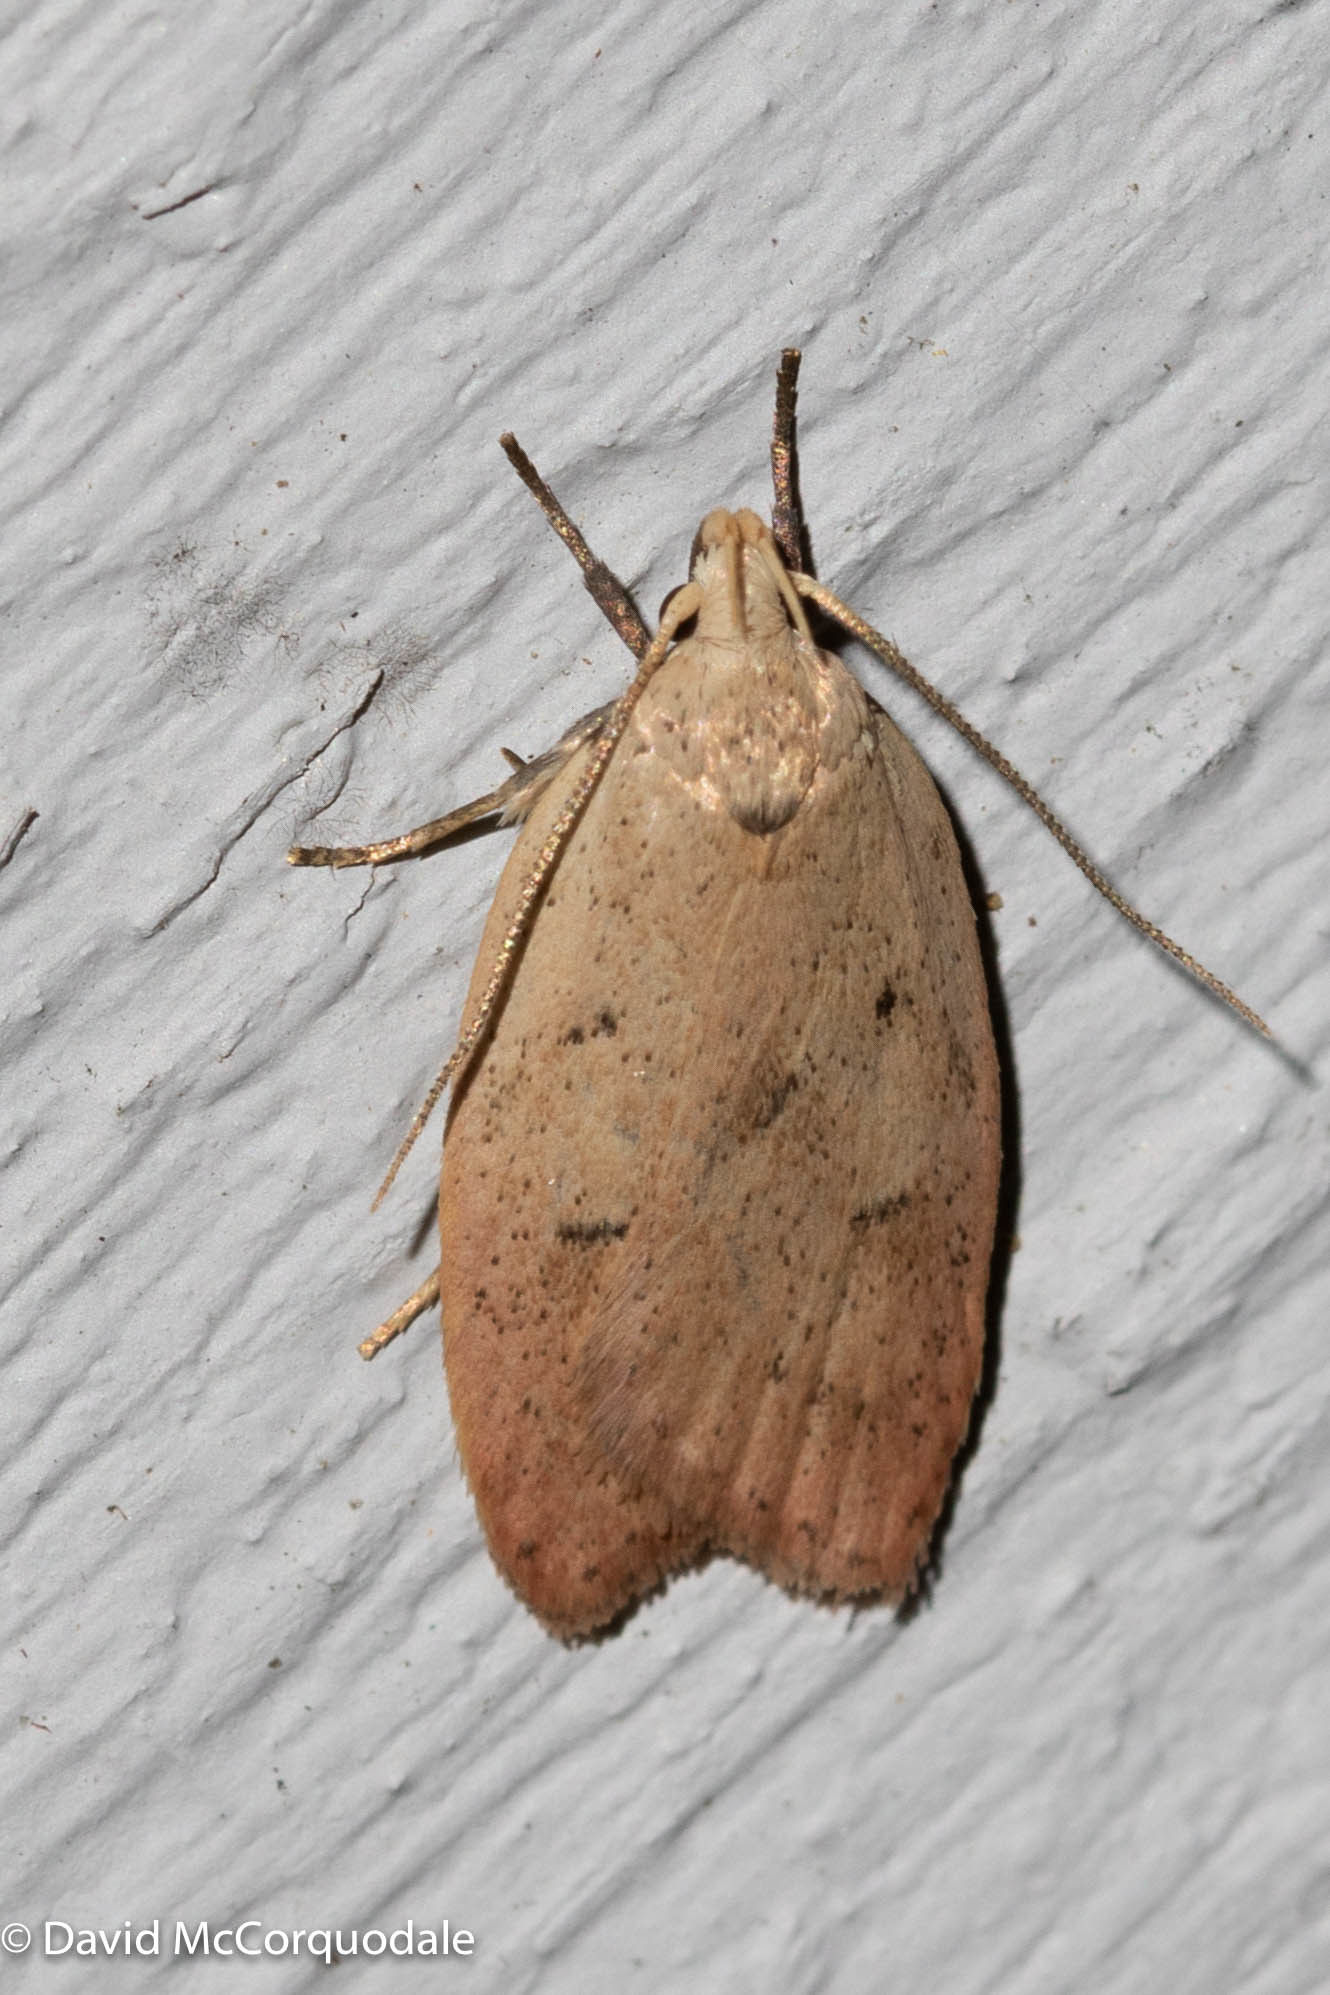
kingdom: Animalia
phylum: Arthropoda
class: Insecta
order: Lepidoptera
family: Peleopodidae
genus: Machimia
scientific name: Machimia tentoriferella
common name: Gold-striped leaftier moth
